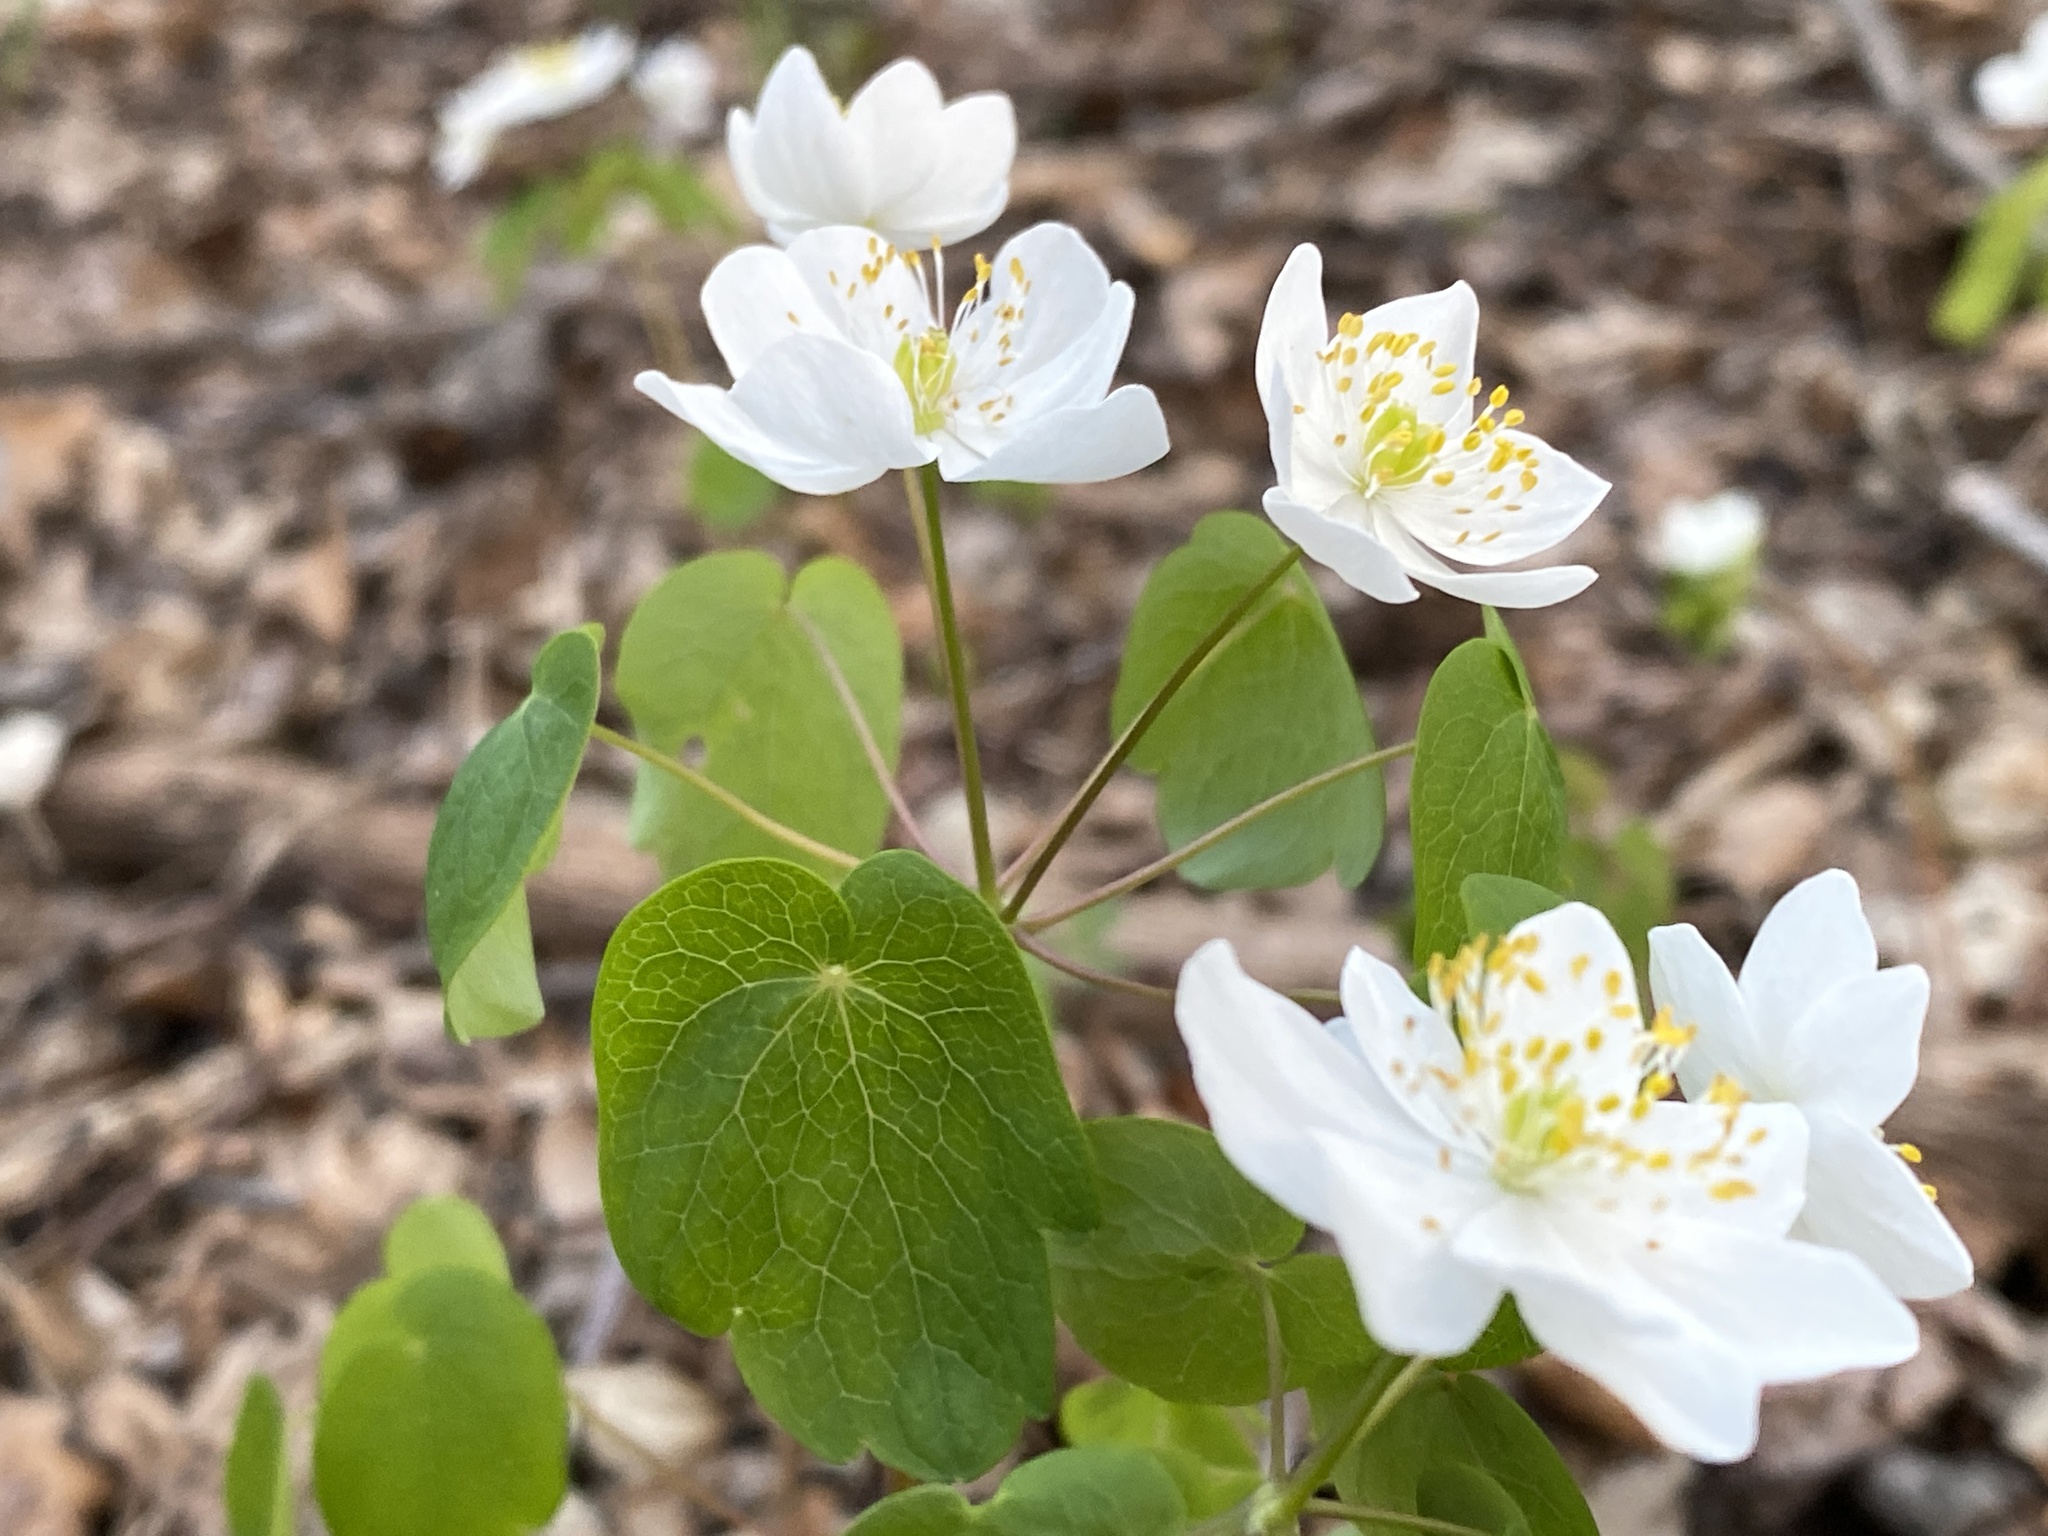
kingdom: Plantae
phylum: Tracheophyta
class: Magnoliopsida
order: Ranunculales
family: Ranunculaceae
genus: Thalictrum
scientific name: Thalictrum thalictroides
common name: Rue-anemone
